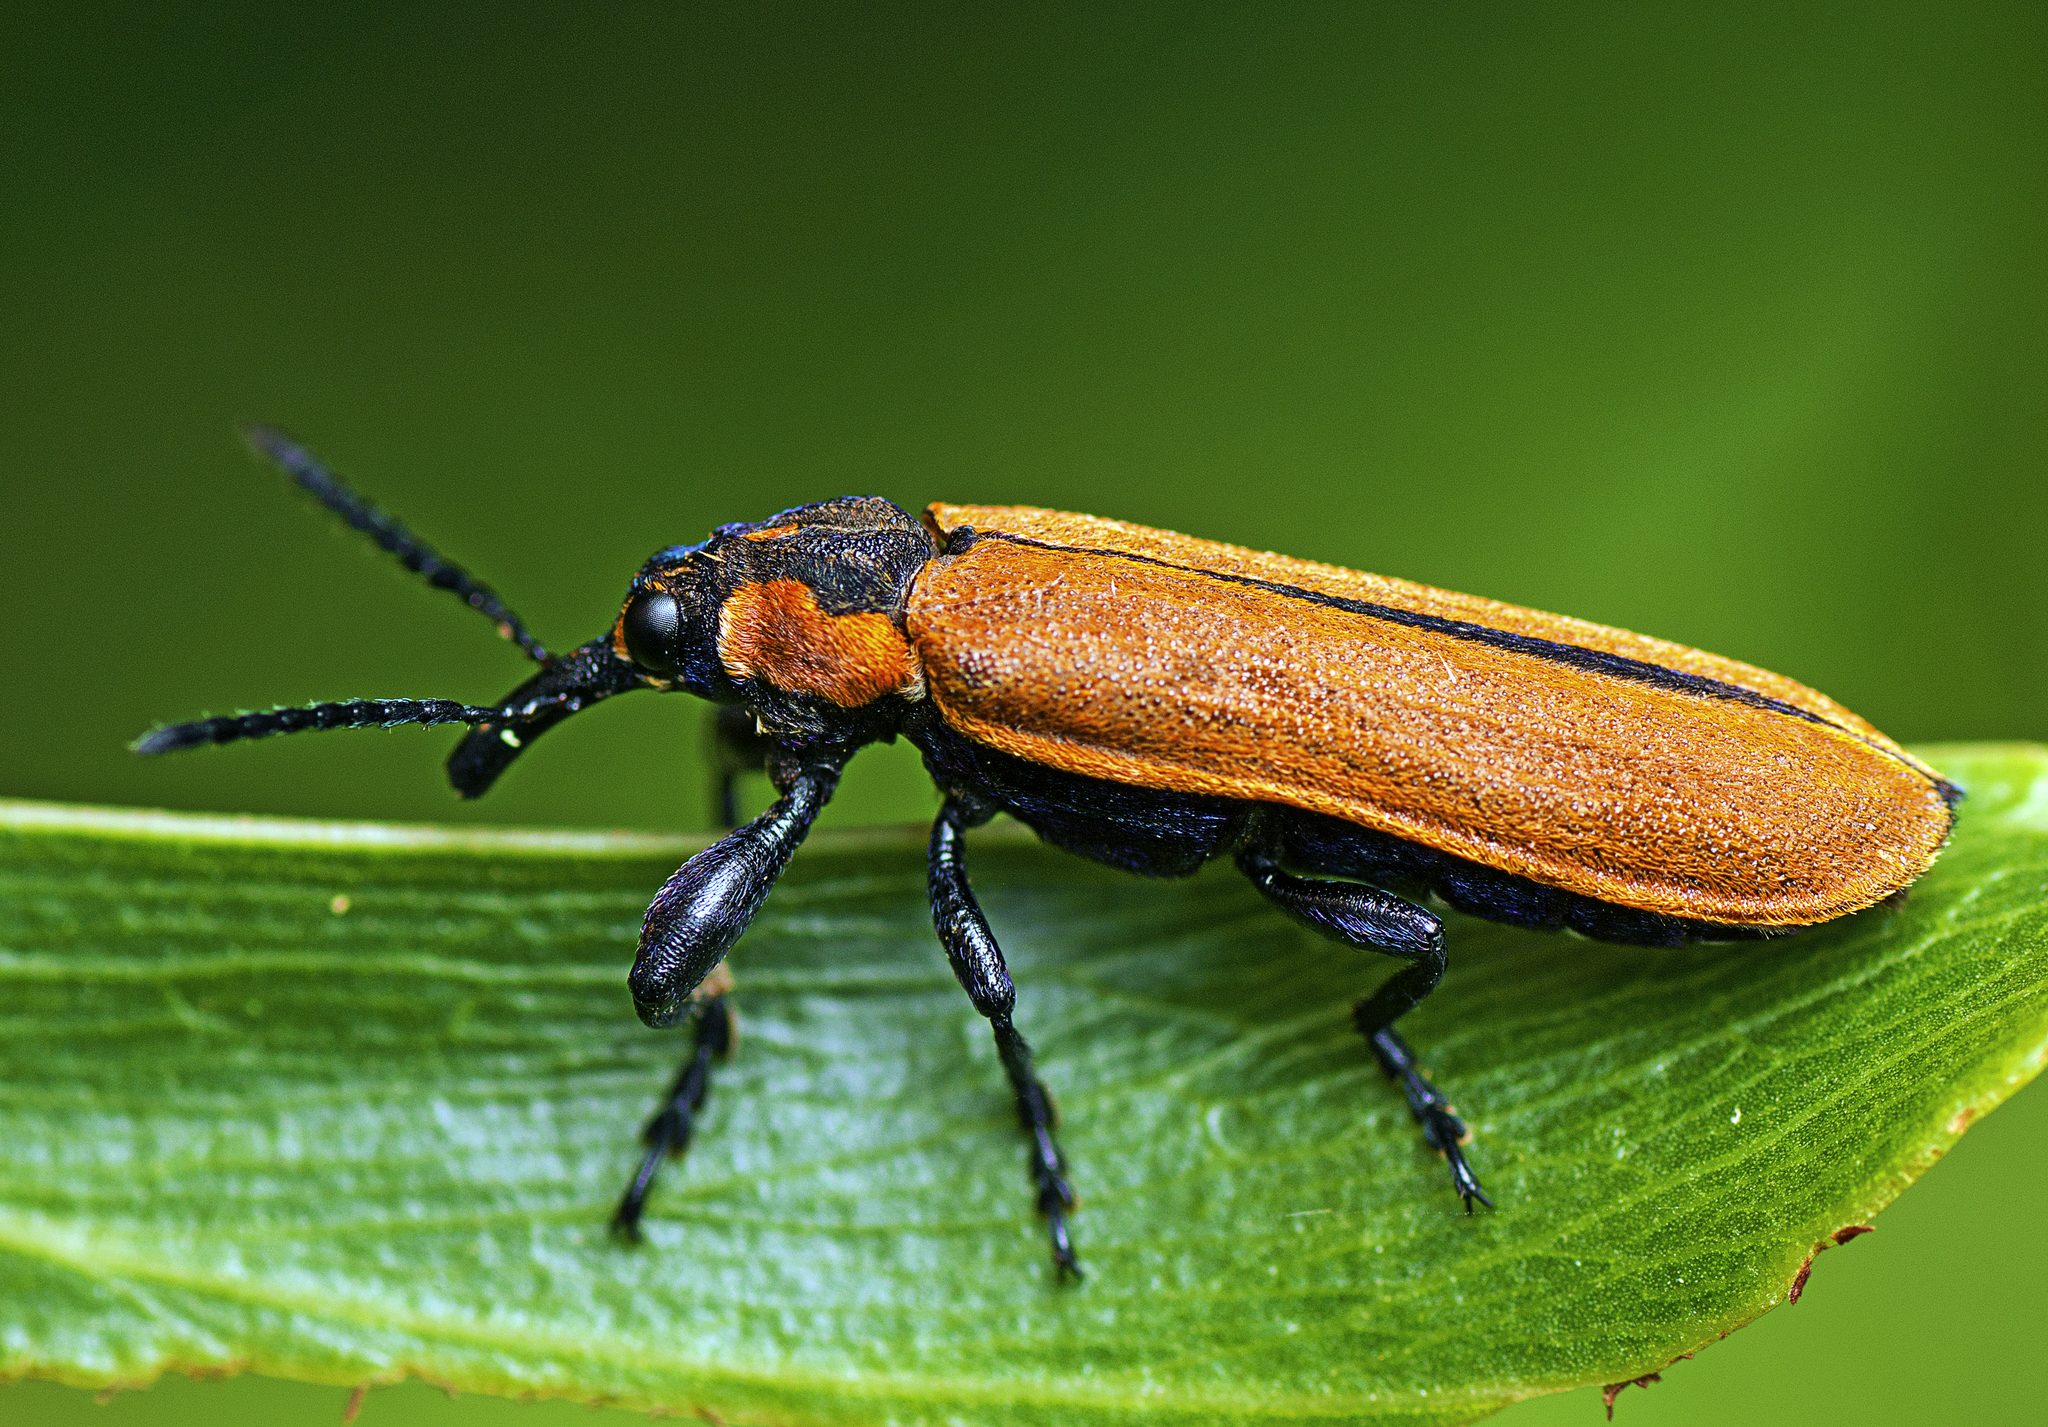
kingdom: Animalia
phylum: Arthropoda
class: Insecta
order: Coleoptera
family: Belidae
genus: Rhinotia
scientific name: Rhinotia haemoptera
